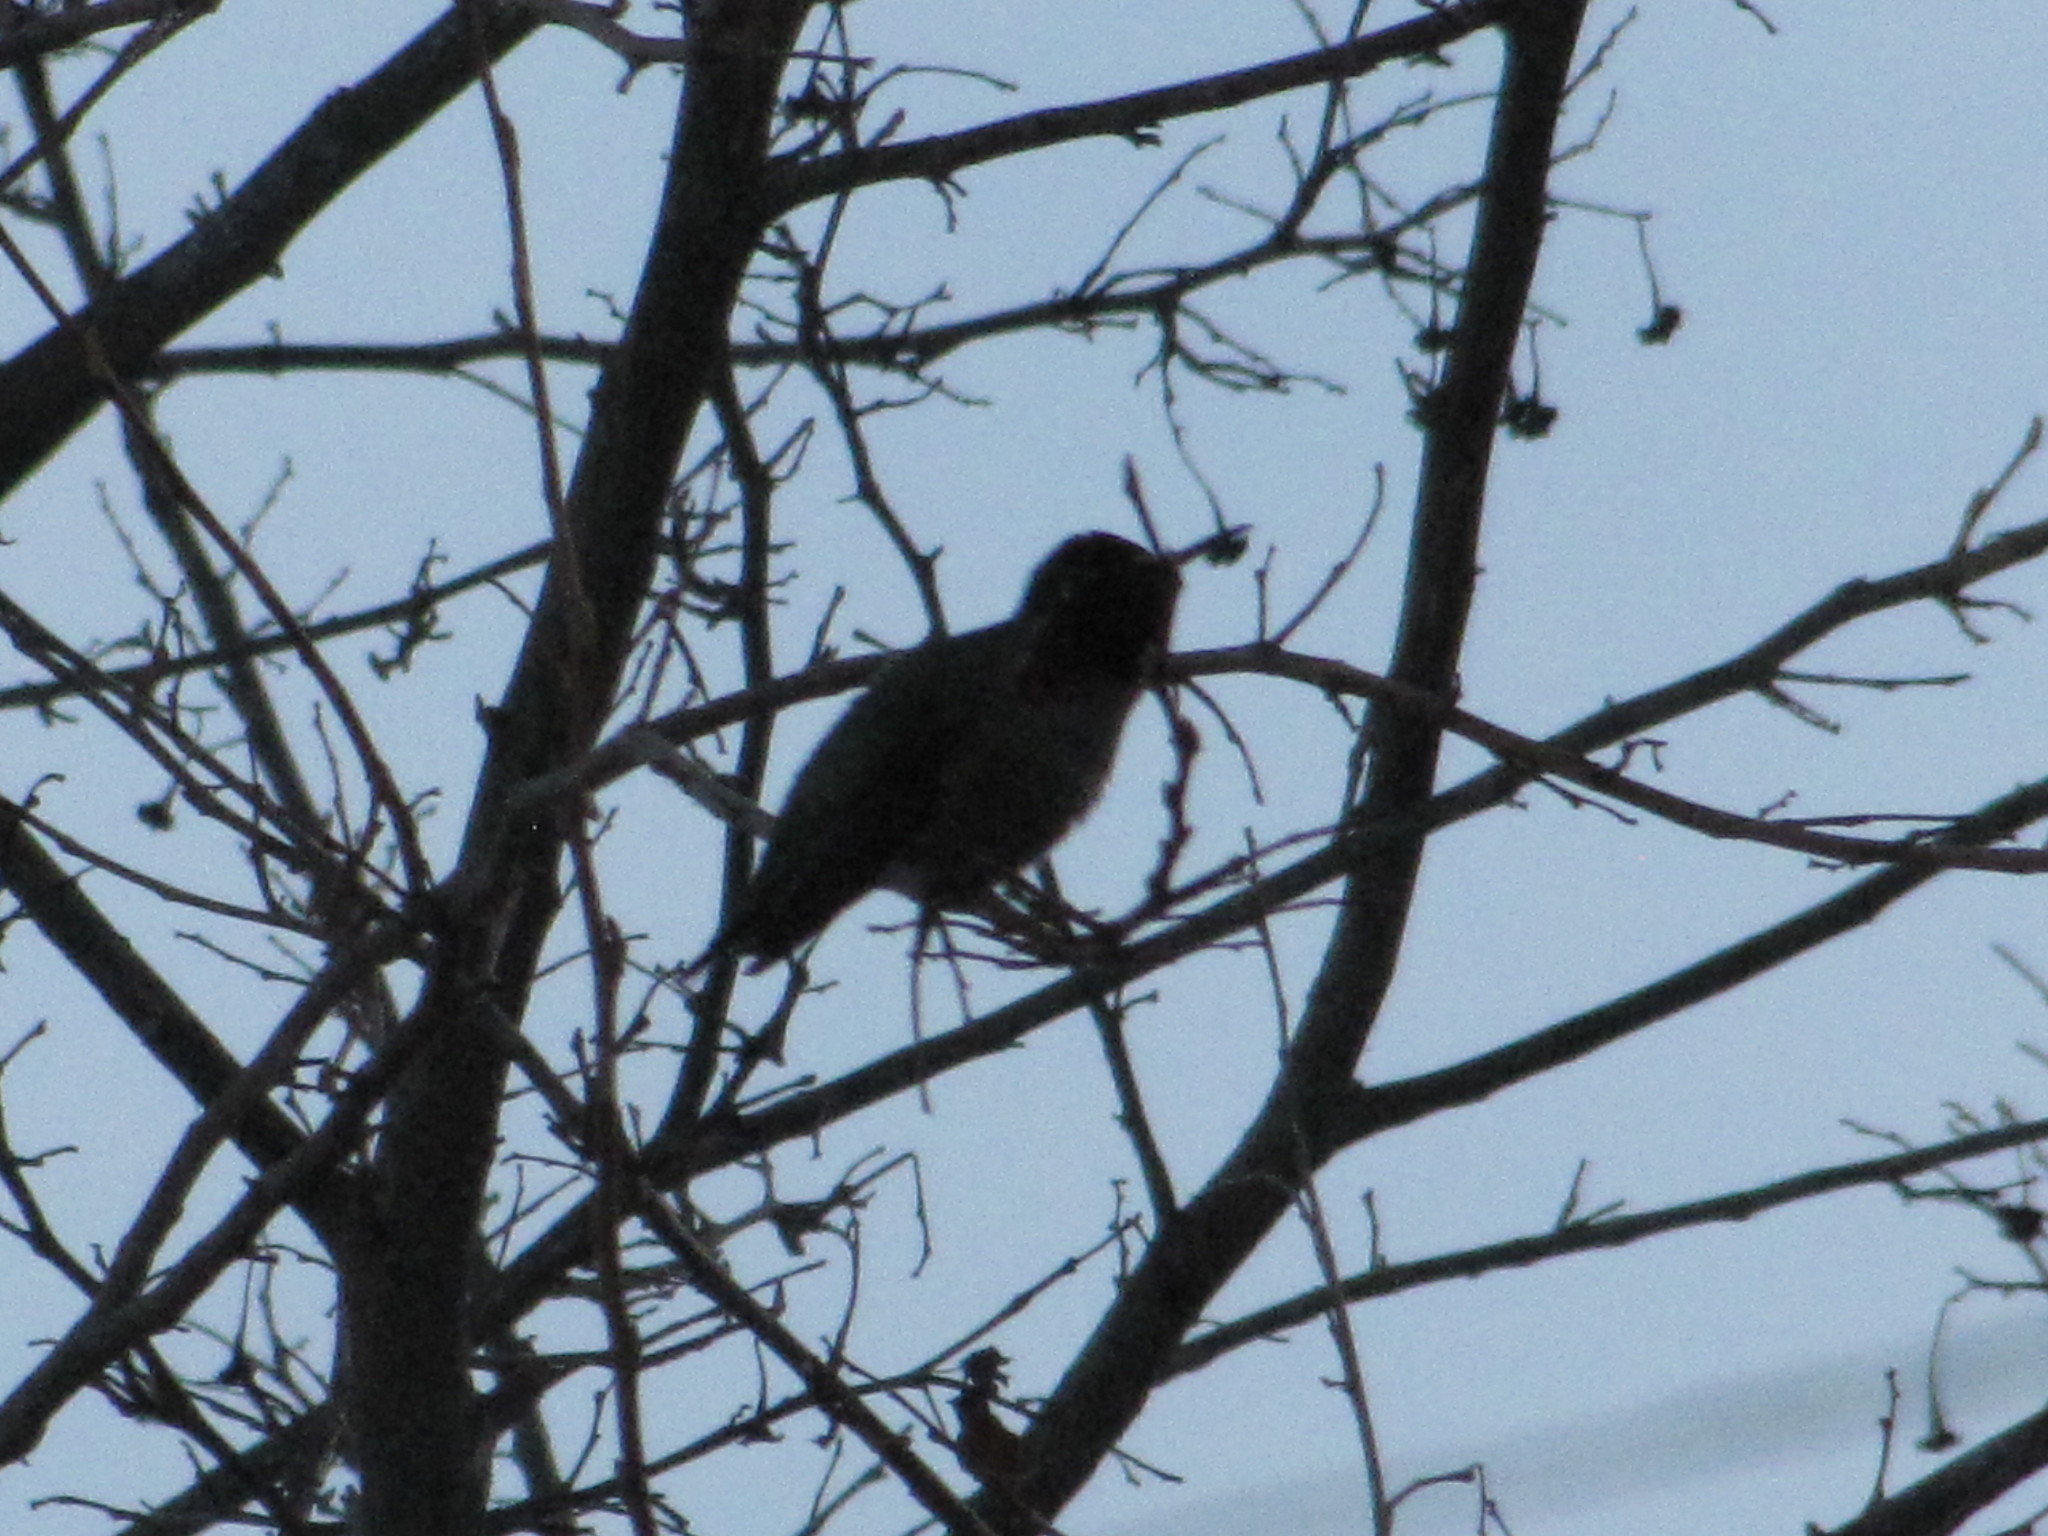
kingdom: Animalia
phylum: Chordata
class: Aves
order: Apodiformes
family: Trochilidae
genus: Calypte
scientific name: Calypte anna
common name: Anna's hummingbird
